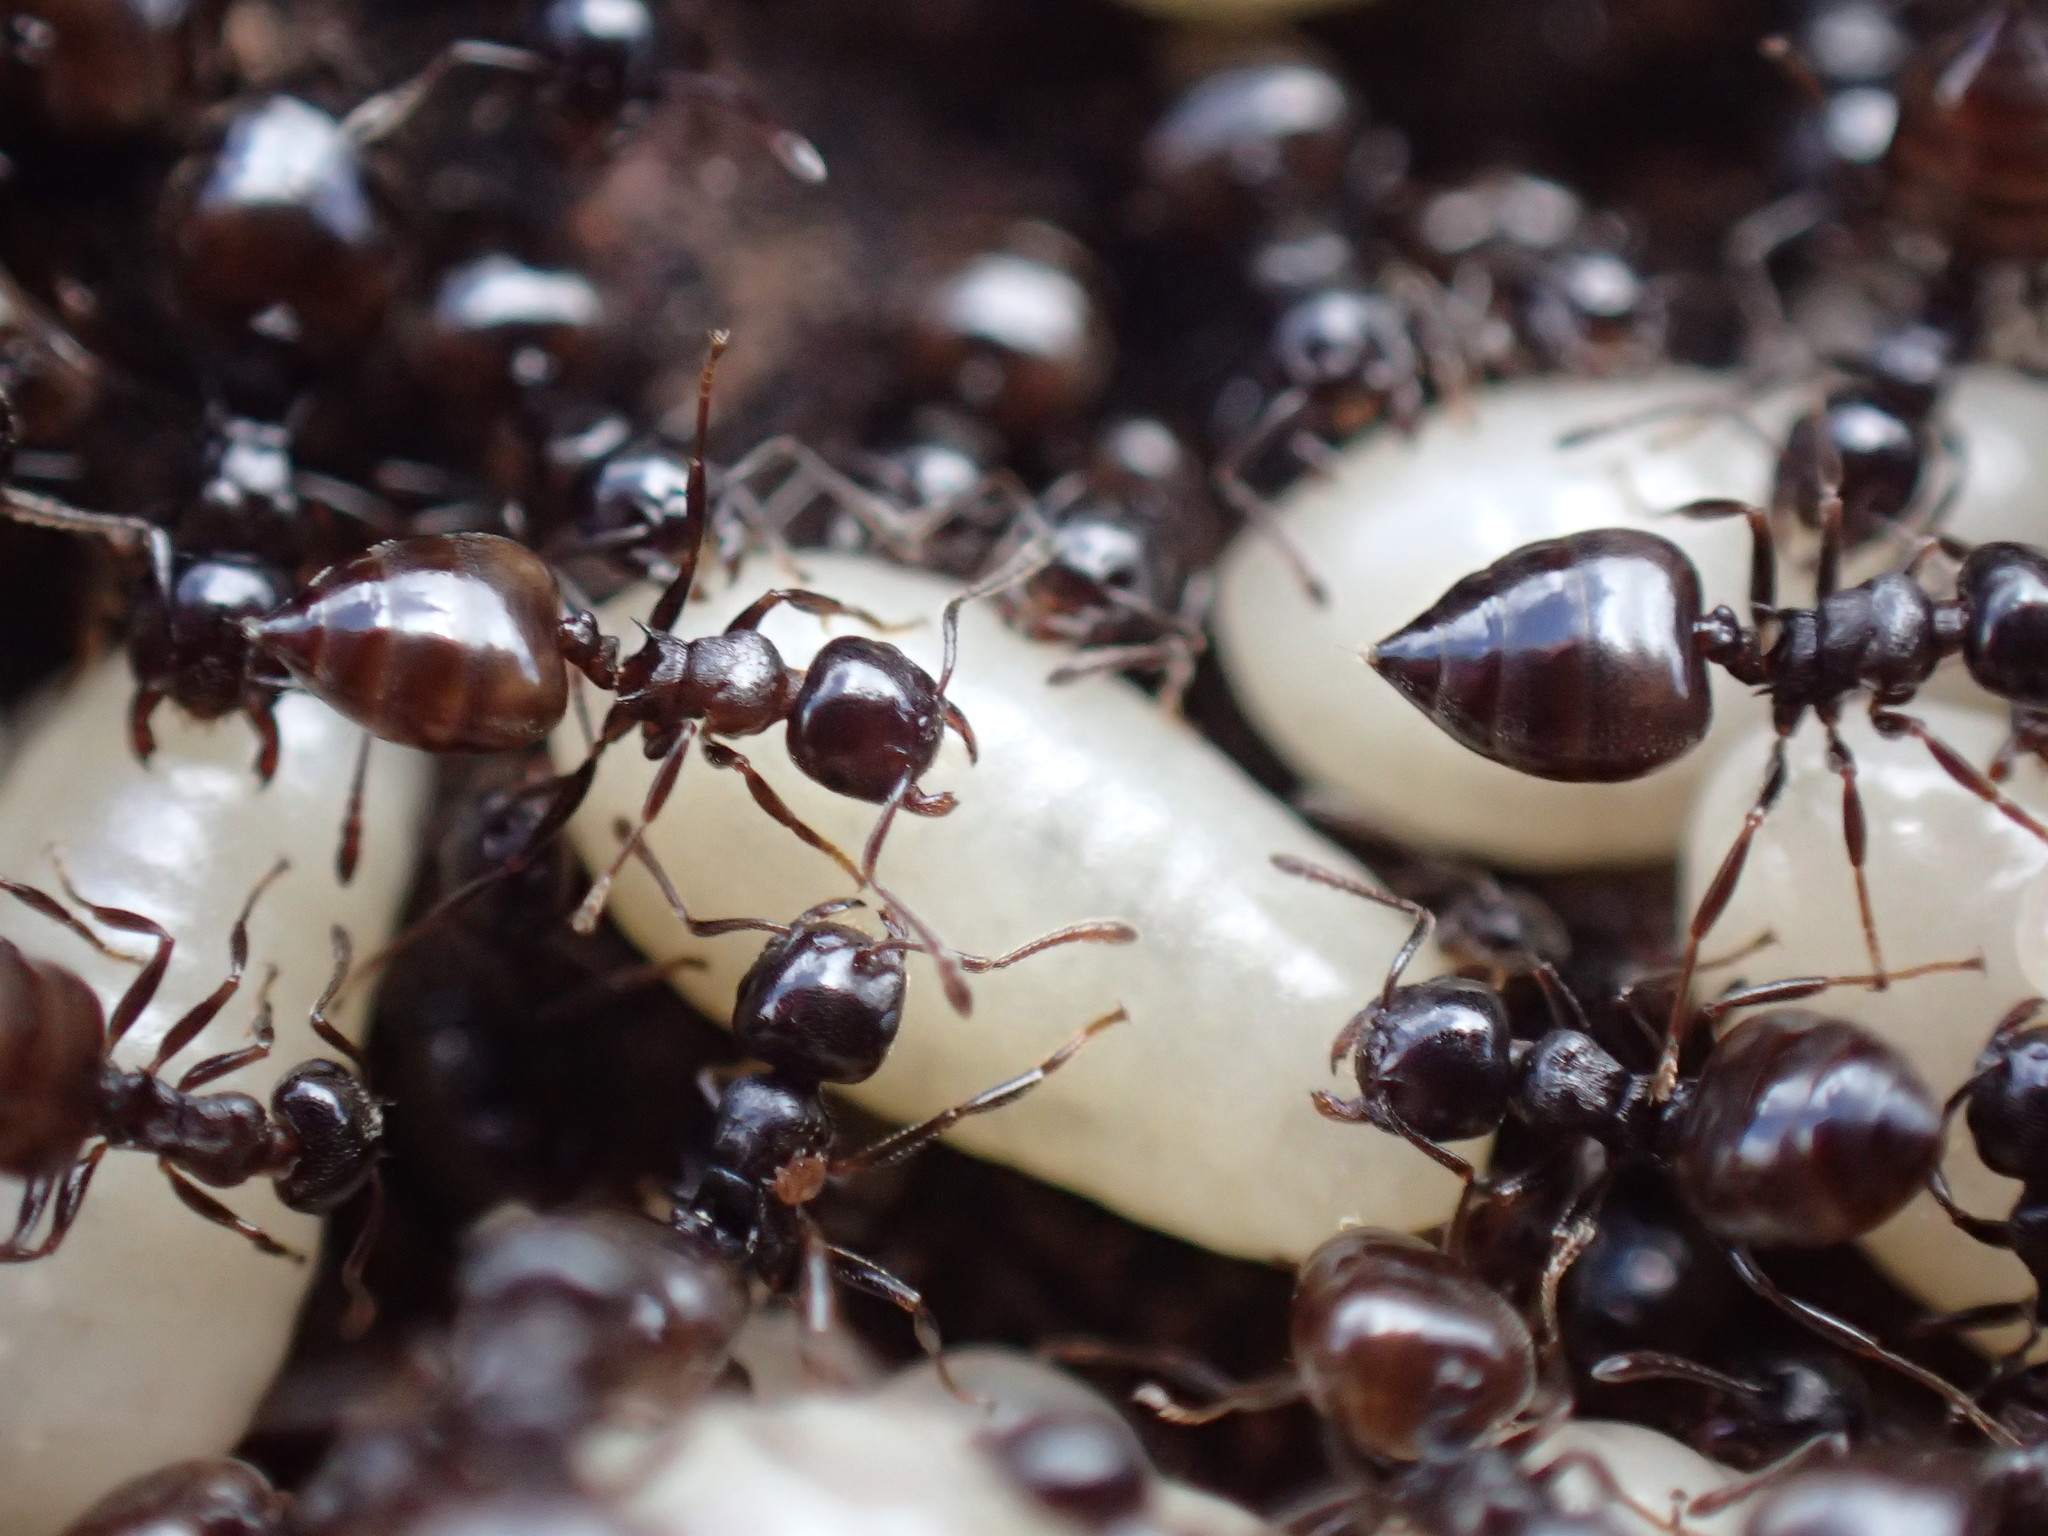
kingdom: Animalia
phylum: Arthropoda
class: Insecta
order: Hymenoptera
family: Formicidae
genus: Crematogaster
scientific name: Crematogaster peringueyi
